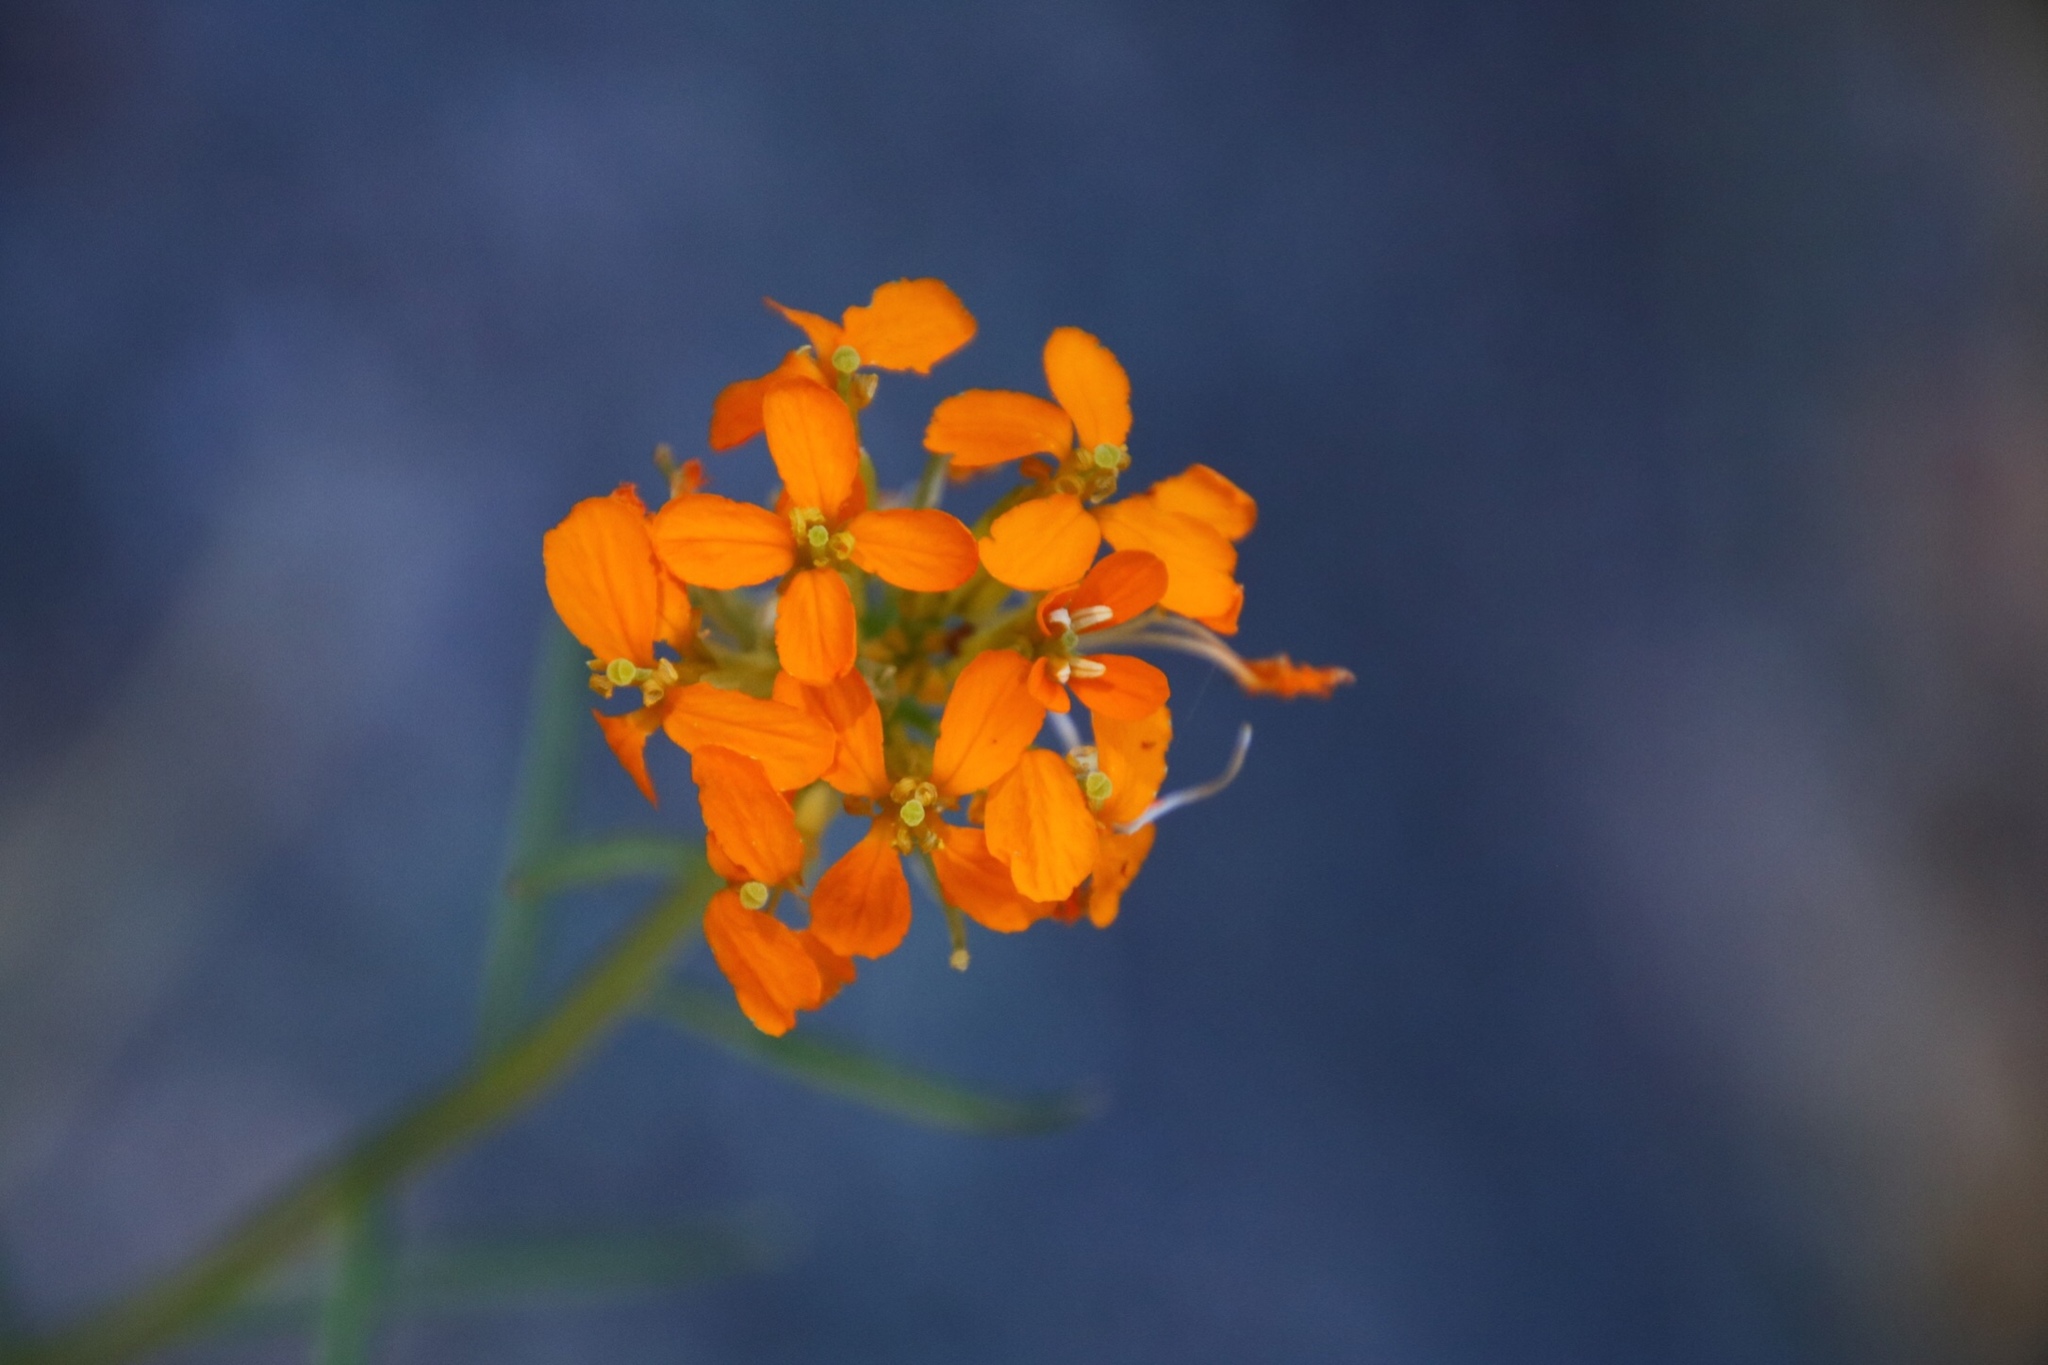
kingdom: Plantae
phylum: Tracheophyta
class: Magnoliopsida
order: Brassicales
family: Brassicaceae
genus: Erysimum
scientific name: Erysimum capitatum
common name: Western wallflower
